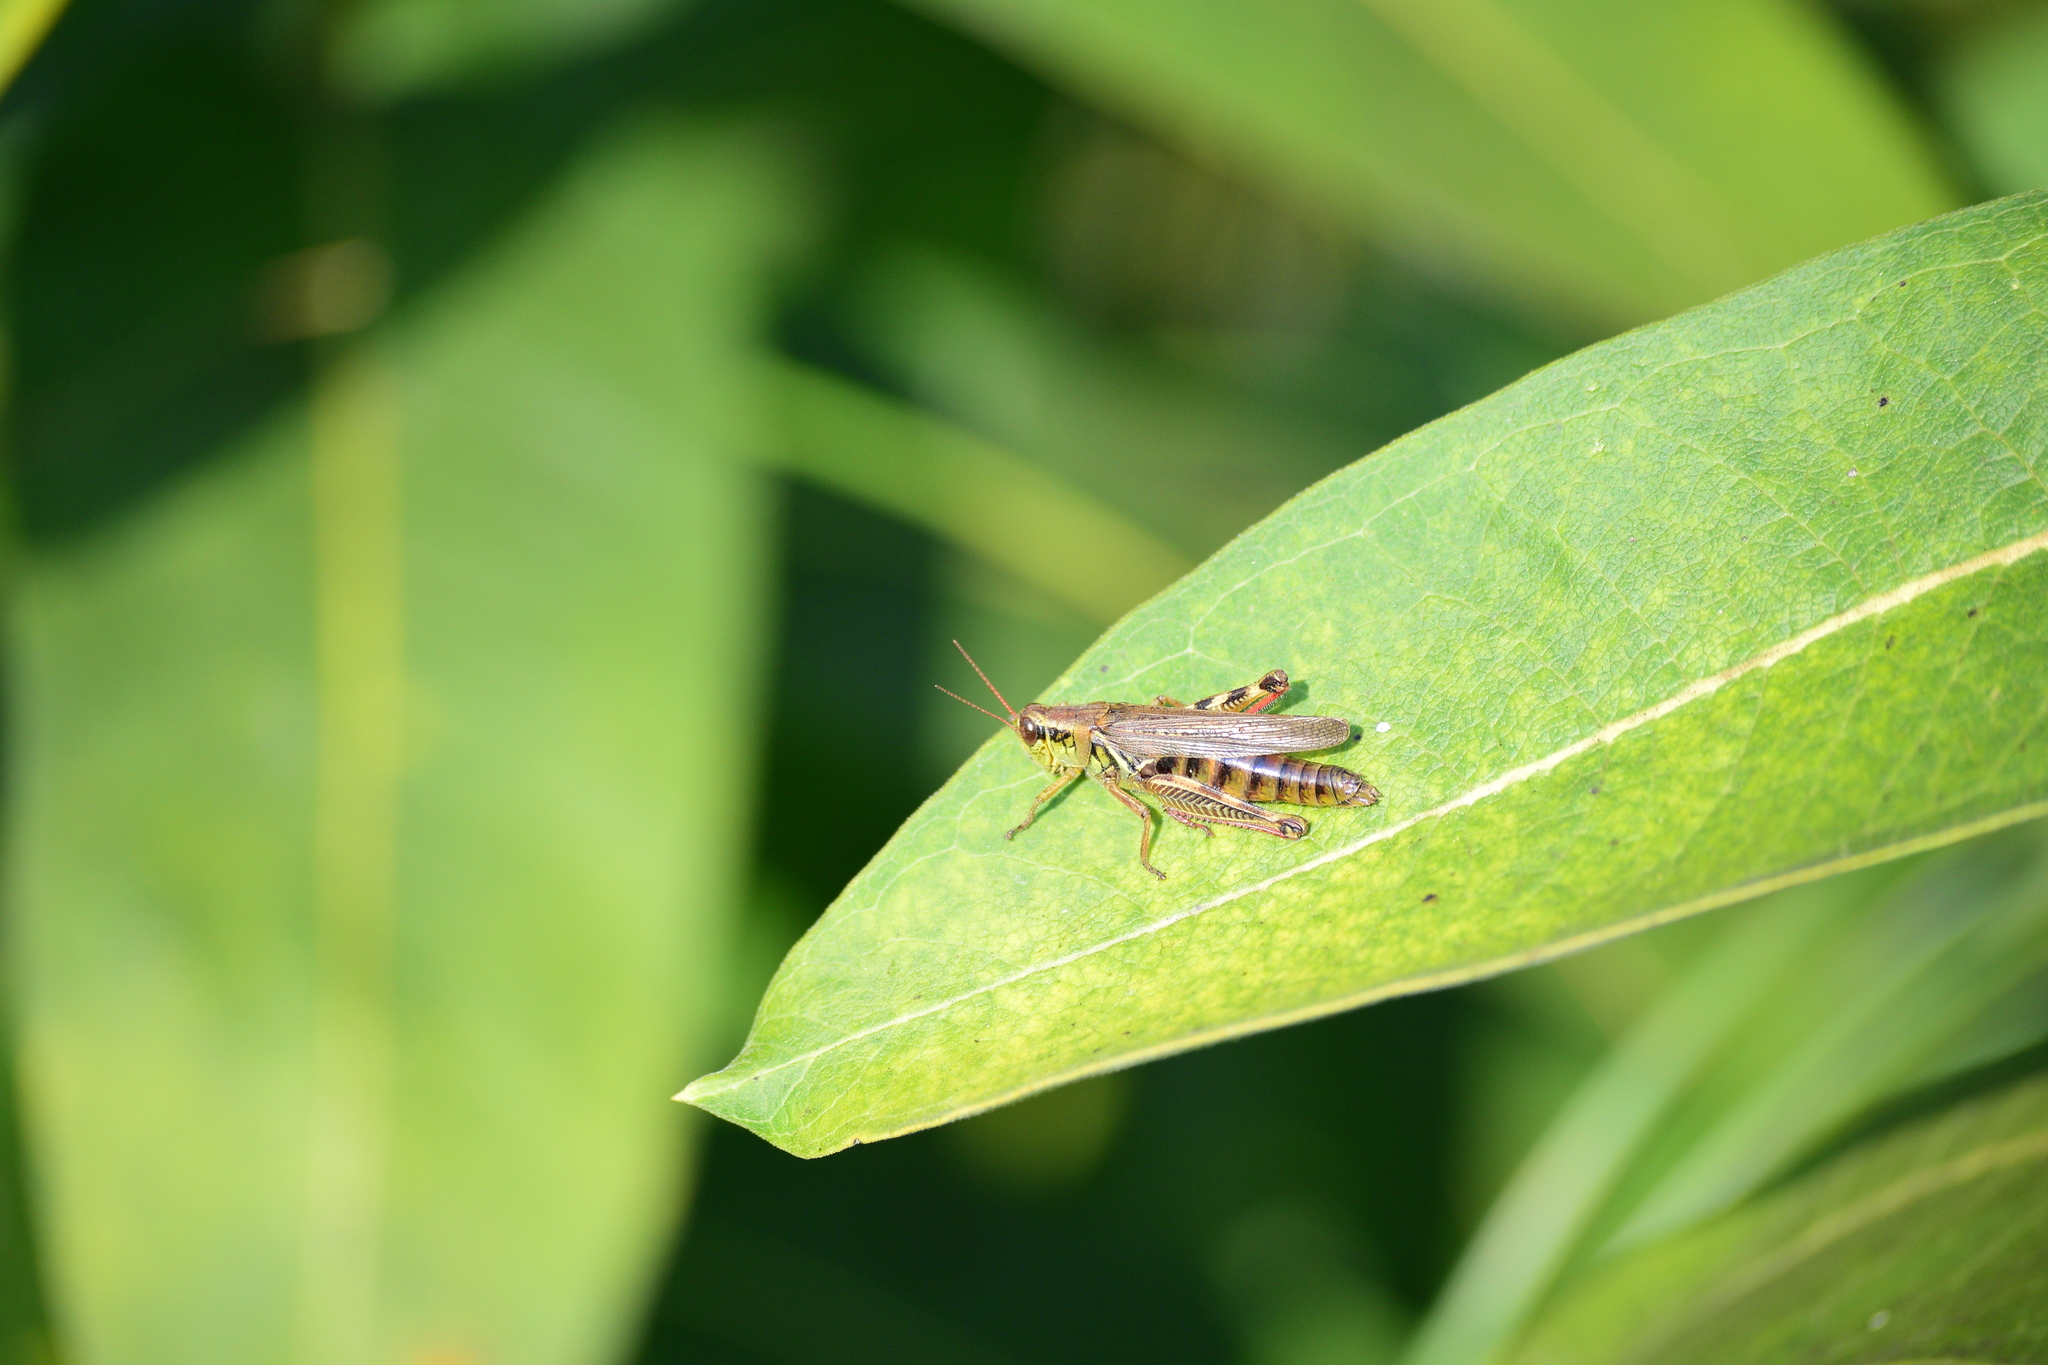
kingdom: Animalia
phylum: Arthropoda
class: Insecta
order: Orthoptera
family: Acrididae
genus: Melanoplus
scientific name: Melanoplus femurrubrum
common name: Red-legged grasshopper
